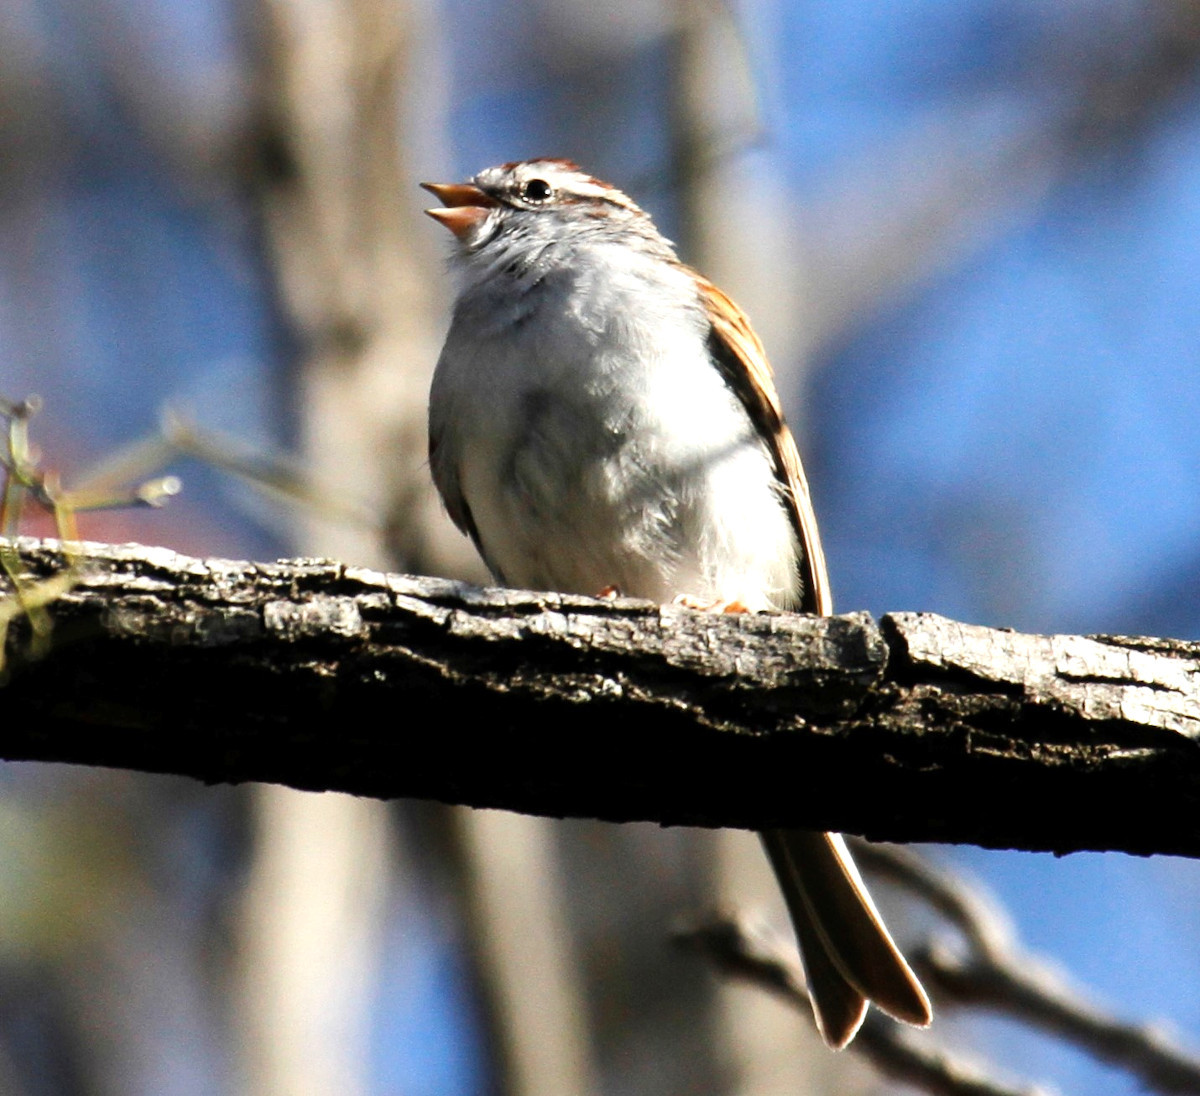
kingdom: Animalia
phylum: Chordata
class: Aves
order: Passeriformes
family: Passerellidae
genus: Spizella
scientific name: Spizella passerina
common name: Chipping sparrow
